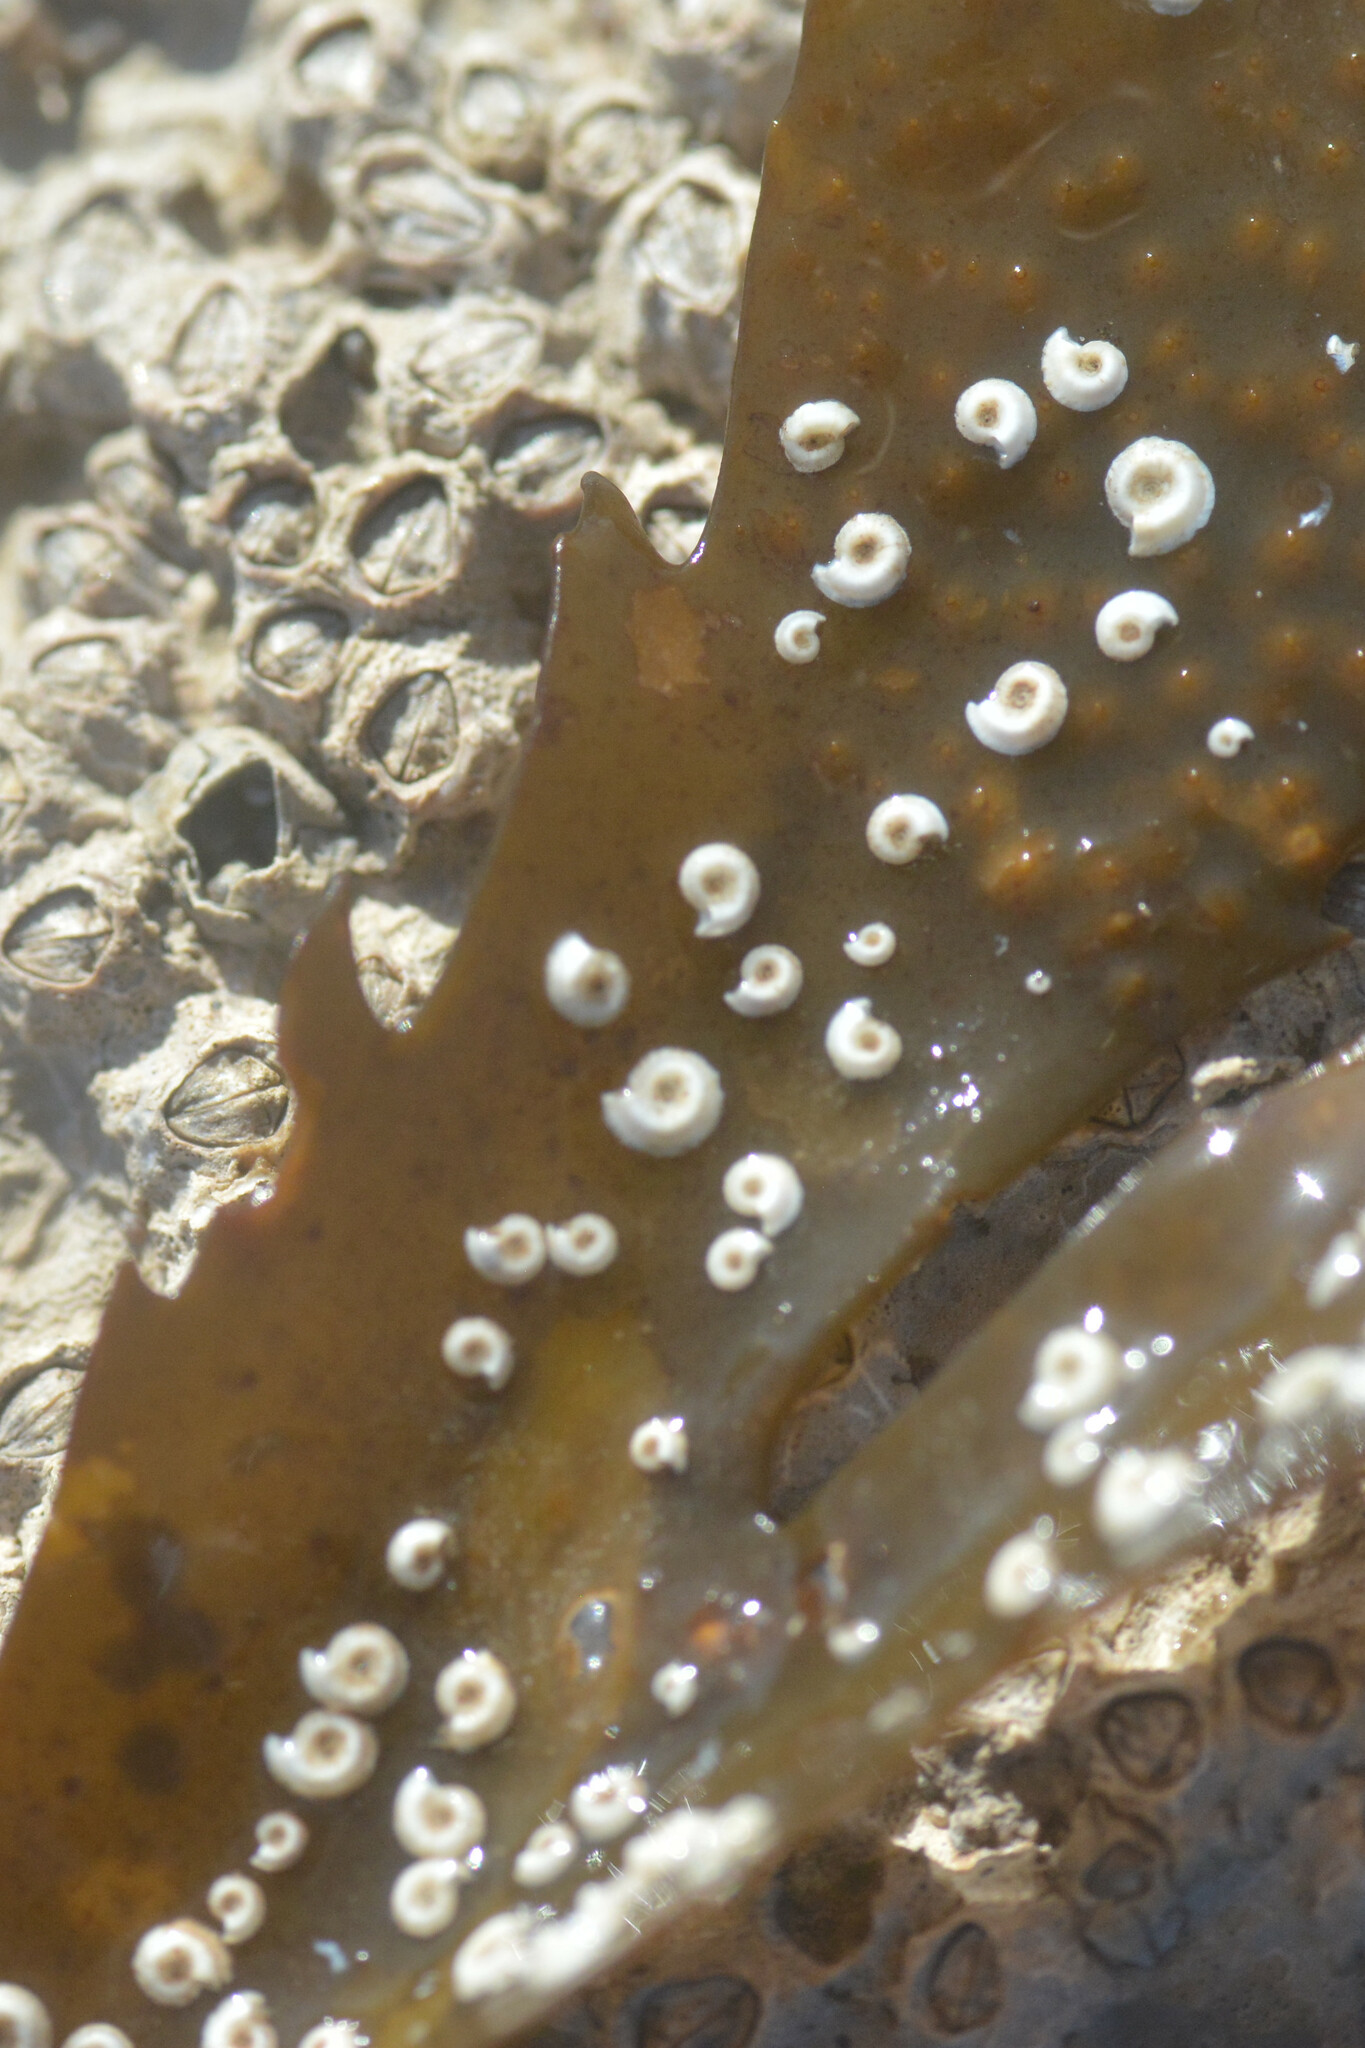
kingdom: Animalia
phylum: Annelida
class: Polychaeta
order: Sabellida
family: Serpulidae
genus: Spirorbis
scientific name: Spirorbis spirorbis
